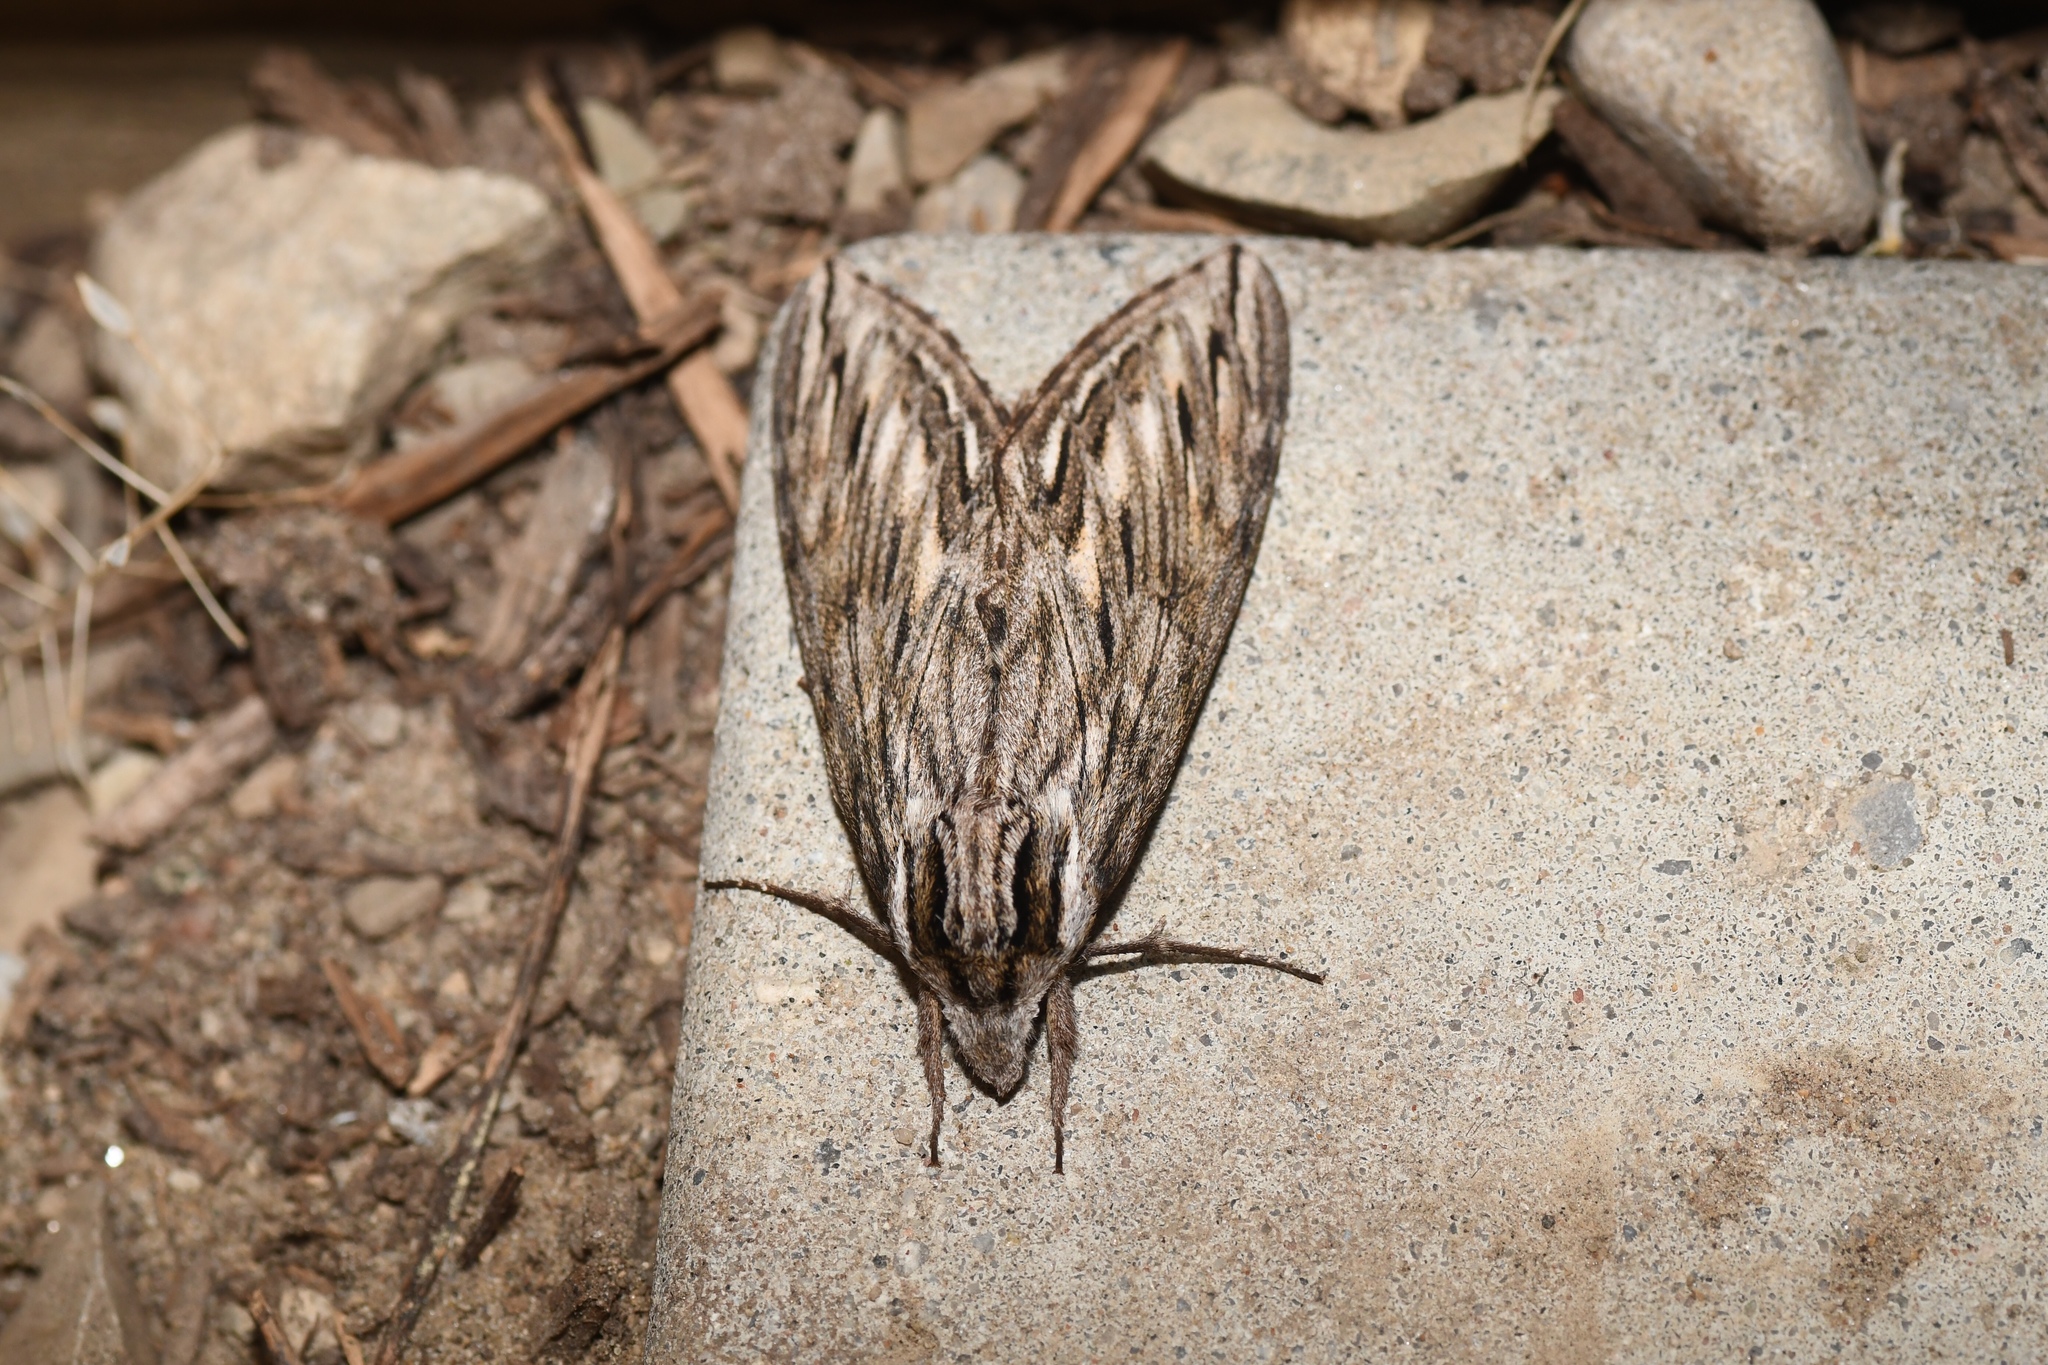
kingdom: Animalia
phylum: Arthropoda
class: Insecta
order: Lepidoptera
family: Sphingidae
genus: Sphinx
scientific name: Sphinx canadensis
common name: Canadian sphinx
